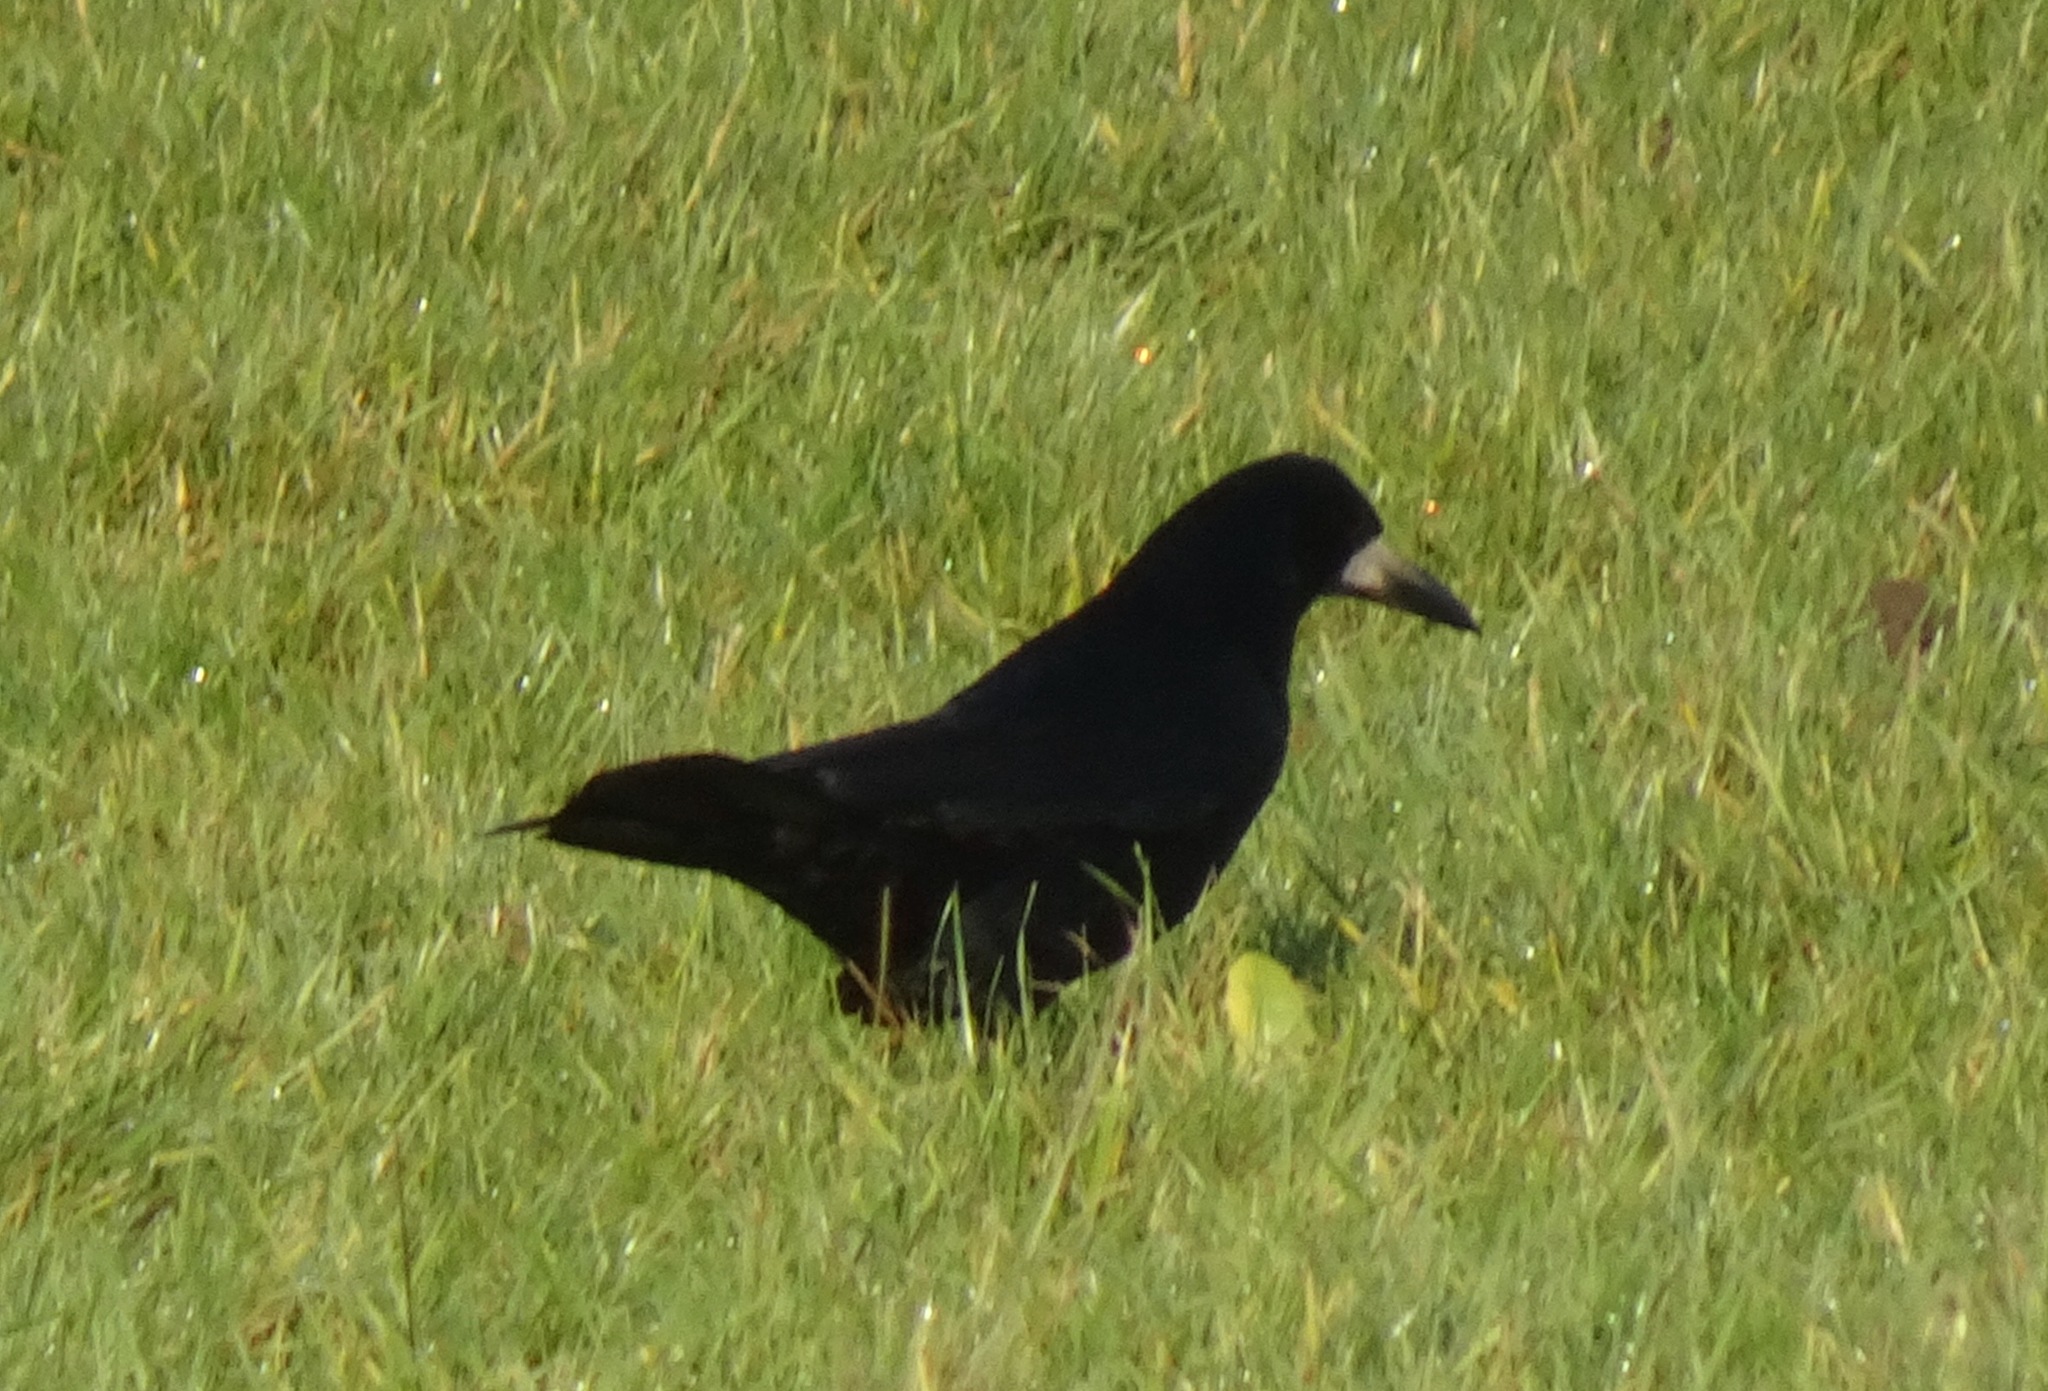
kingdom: Animalia
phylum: Chordata
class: Aves
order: Passeriformes
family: Corvidae
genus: Corvus
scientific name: Corvus frugilegus
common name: Rook
